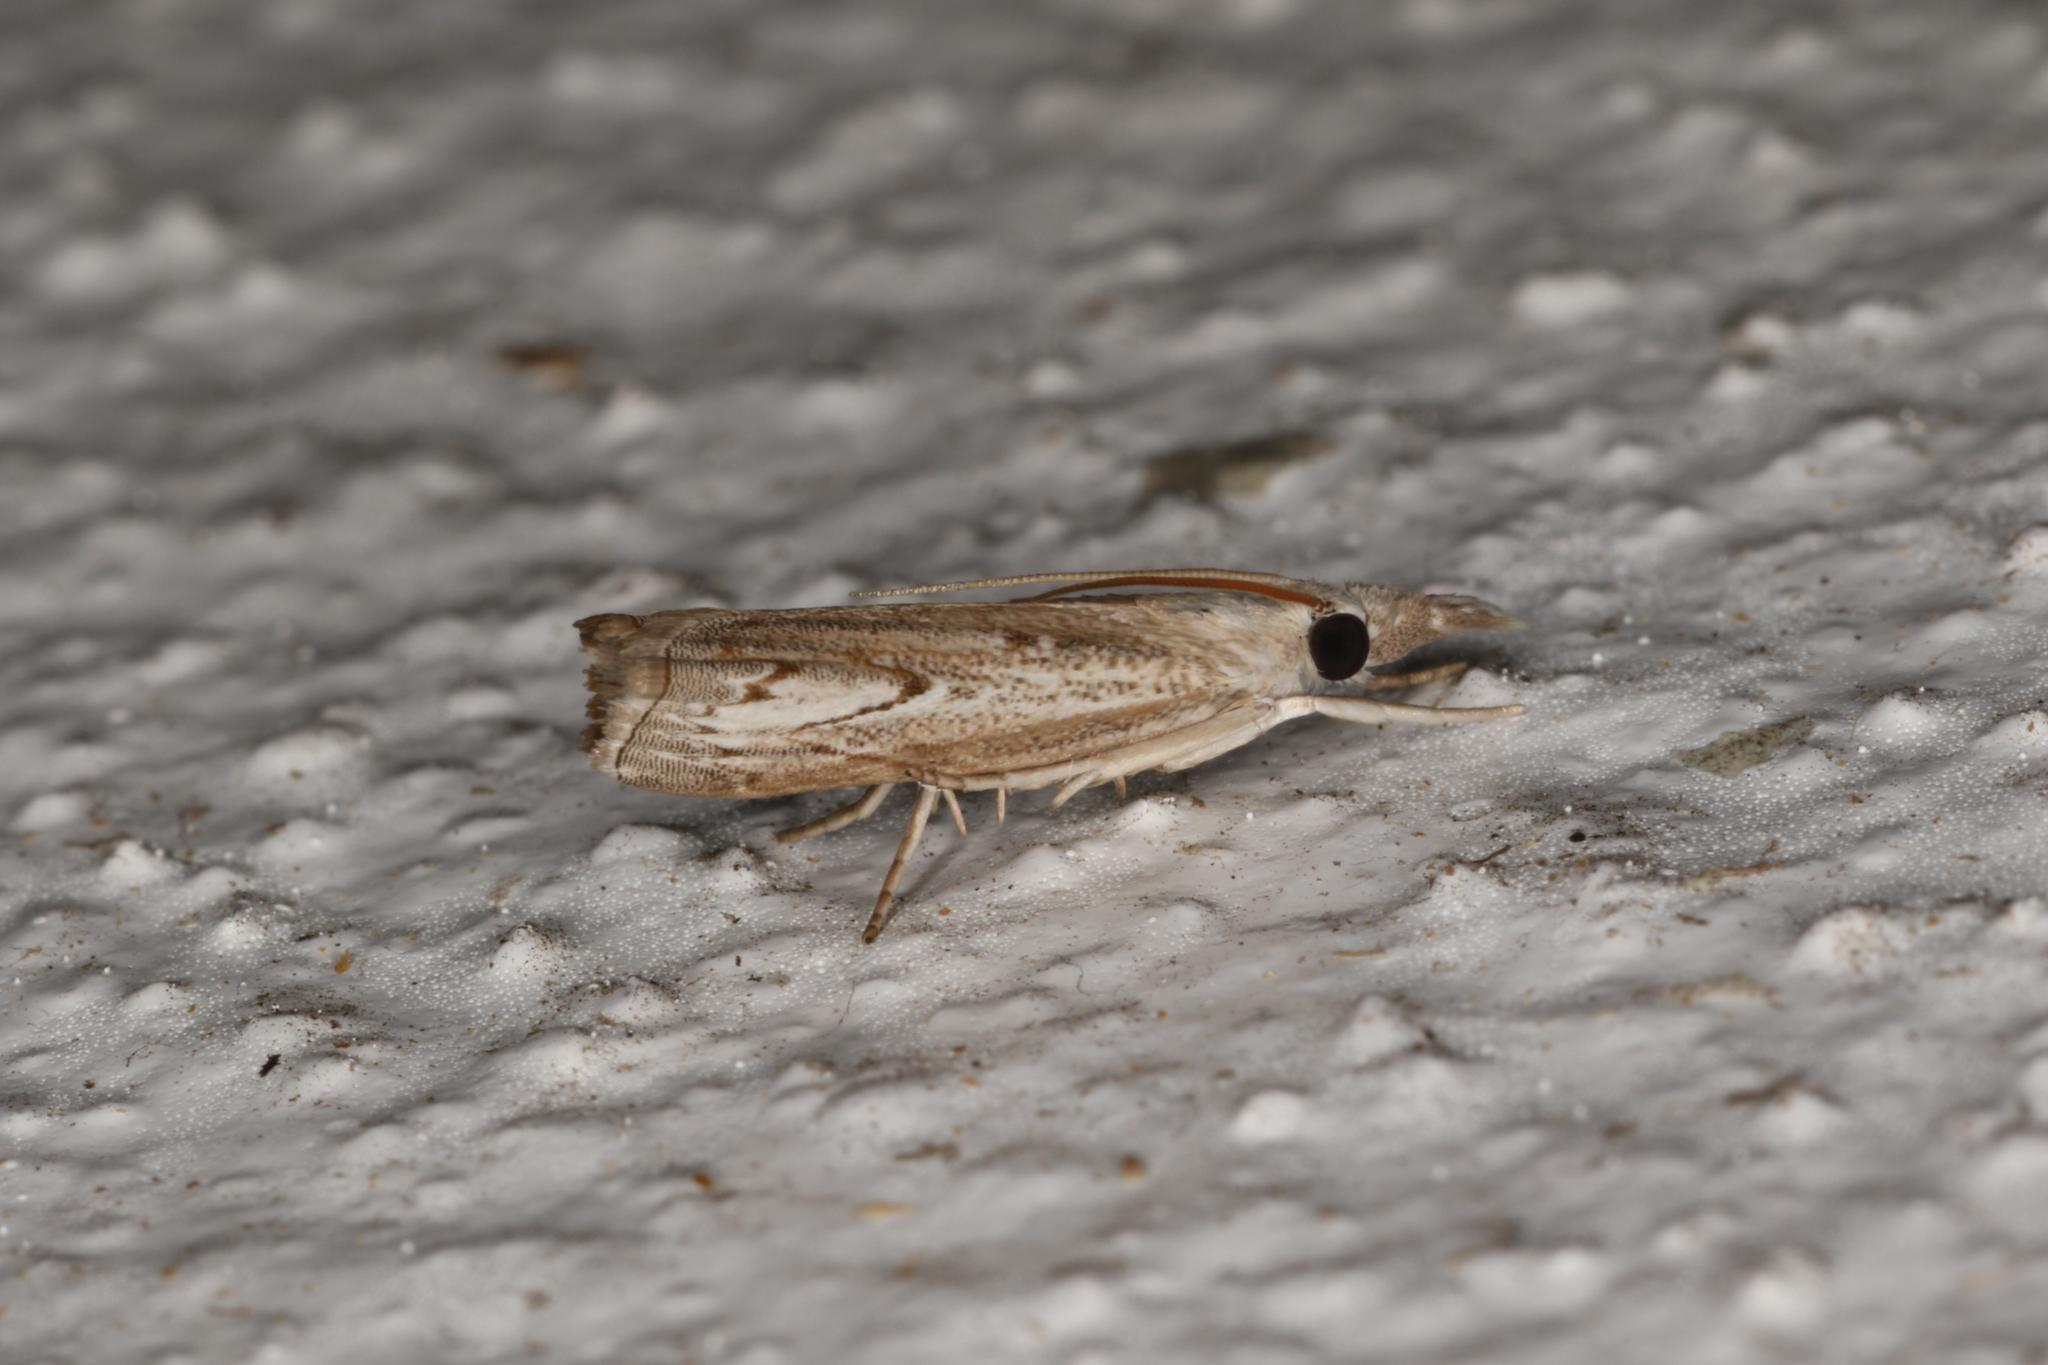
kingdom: Animalia
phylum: Arthropoda
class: Insecta
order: Lepidoptera
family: Crambidae
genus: Culladia
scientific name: Culladia cuneiferellus
